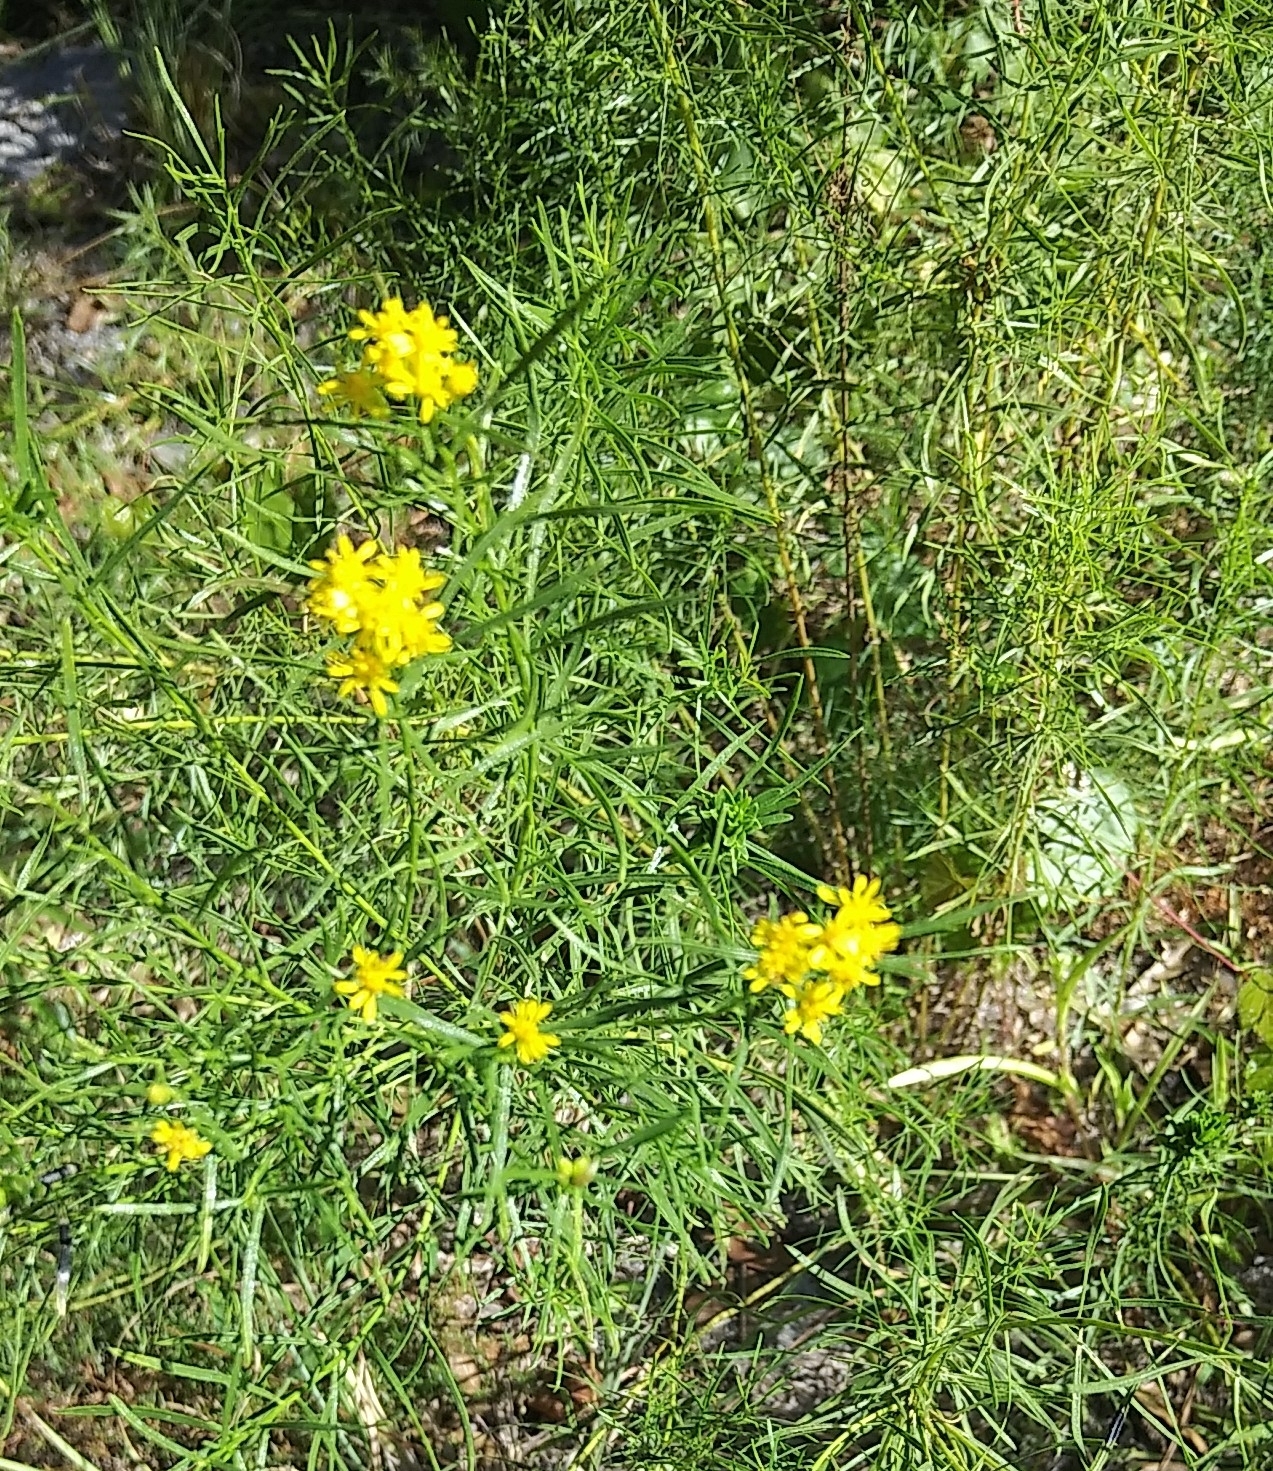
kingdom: Plantae
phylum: Tracheophyta
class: Magnoliopsida
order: Asterales
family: Asteraceae
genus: Euthamia
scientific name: Euthamia weakleyi
